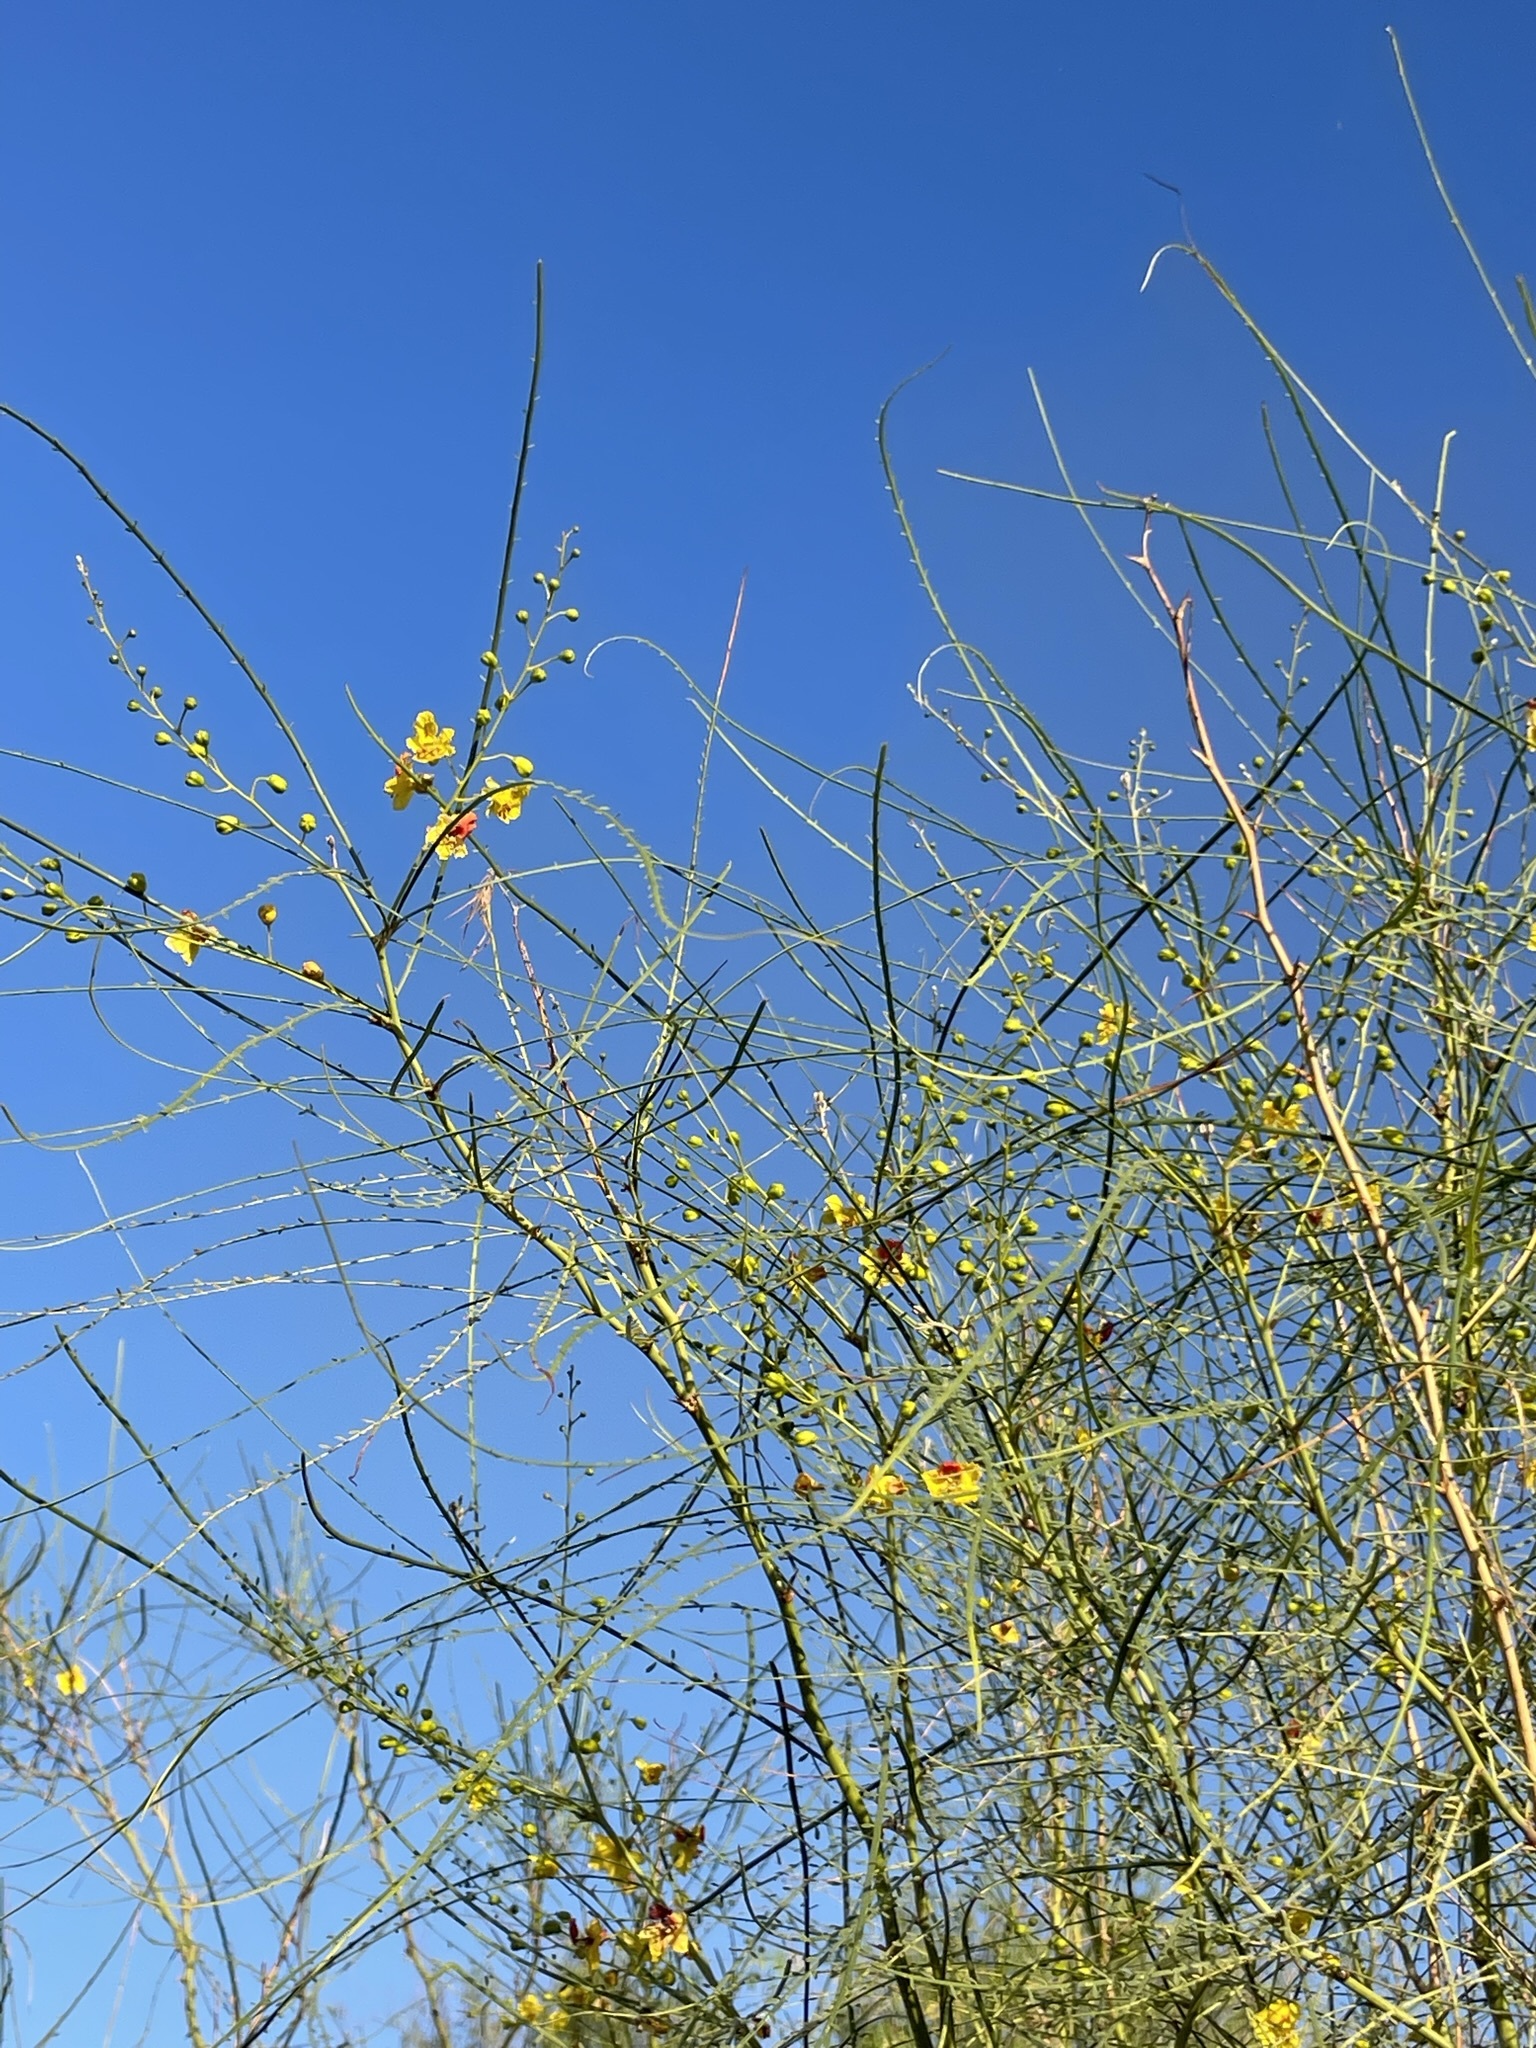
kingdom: Plantae
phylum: Tracheophyta
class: Magnoliopsida
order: Fabales
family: Fabaceae
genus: Parkinsonia
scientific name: Parkinsonia aculeata
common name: Jerusalem thorn
